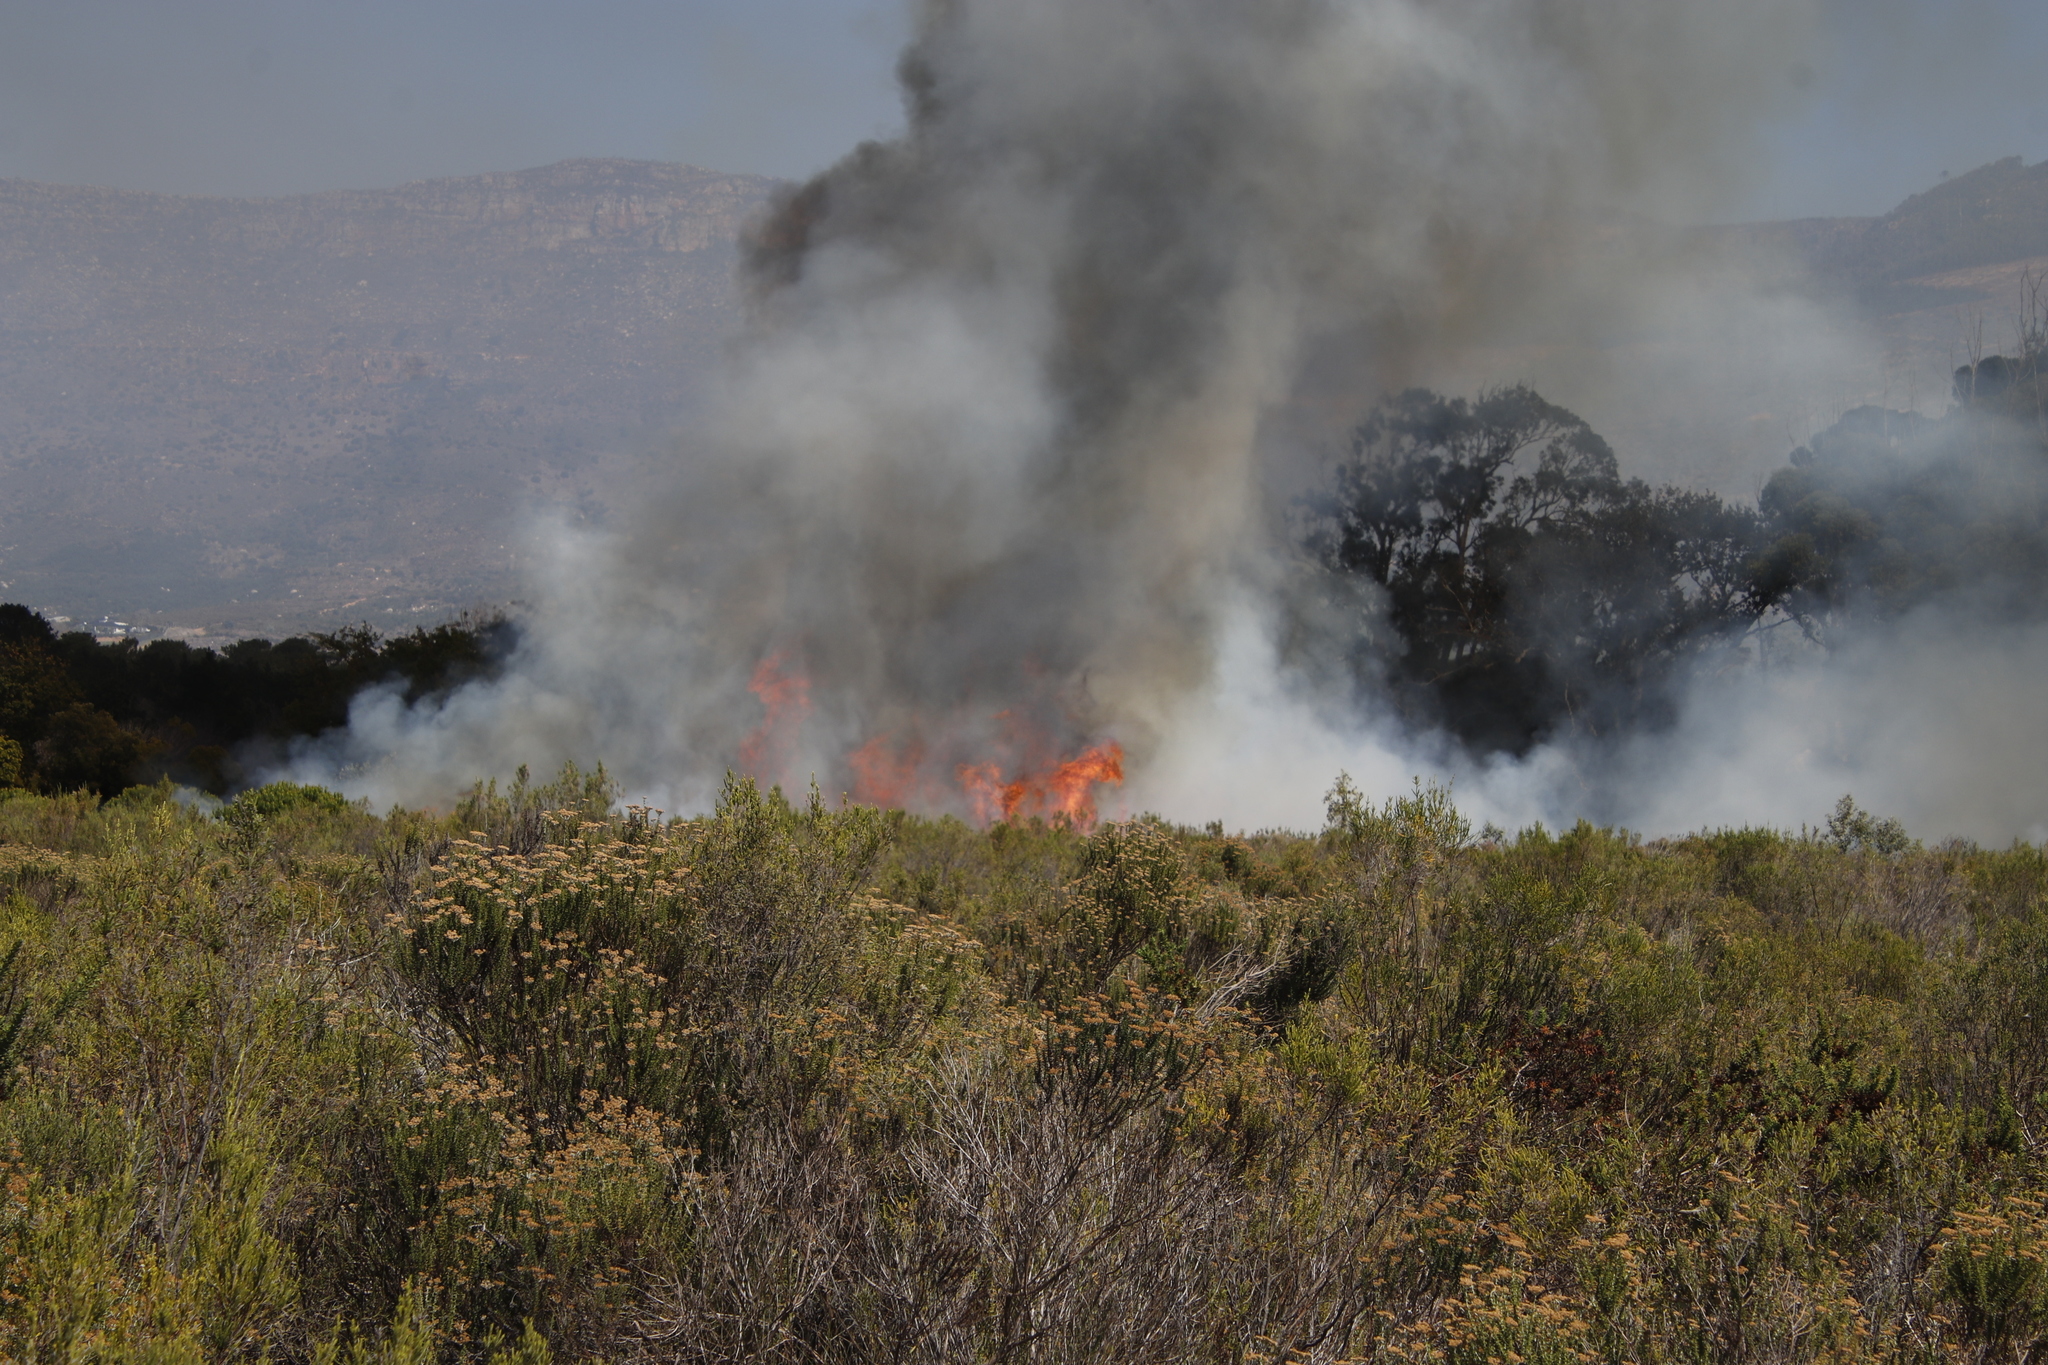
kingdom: Plantae
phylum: Tracheophyta
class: Magnoliopsida
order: Asterales
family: Asteraceae
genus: Metalasia
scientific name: Metalasia densa
